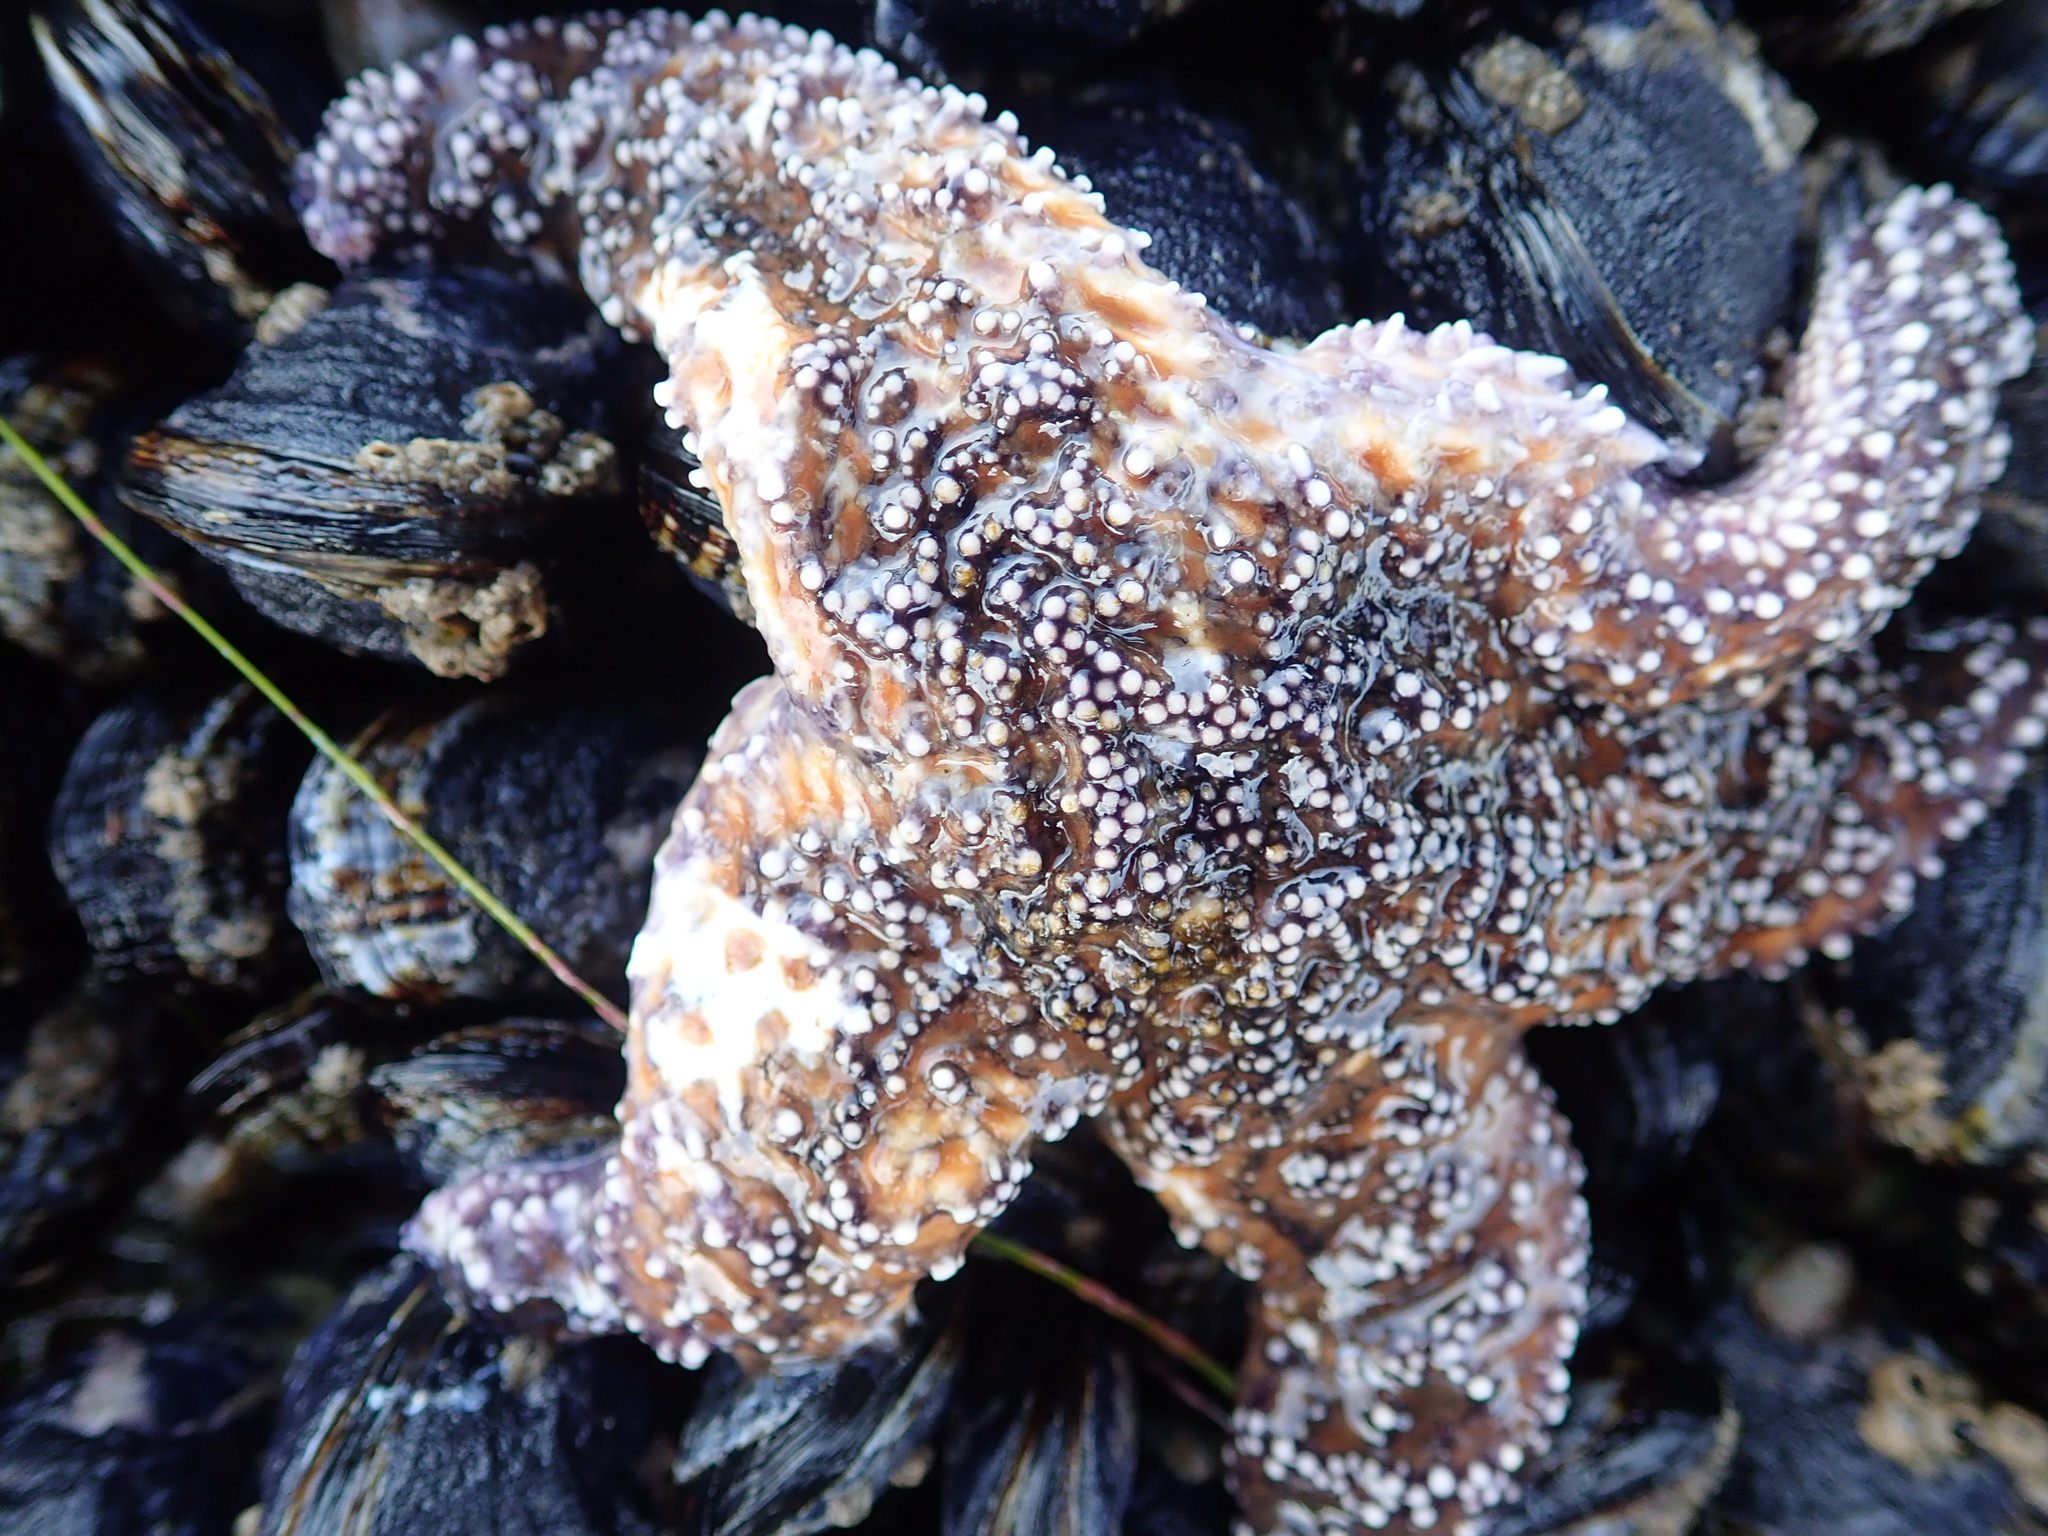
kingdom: Animalia
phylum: Echinodermata
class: Asteroidea
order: Forcipulatida
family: Asteriidae
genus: Pisaster
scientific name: Pisaster ochraceus
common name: Ochre stars
